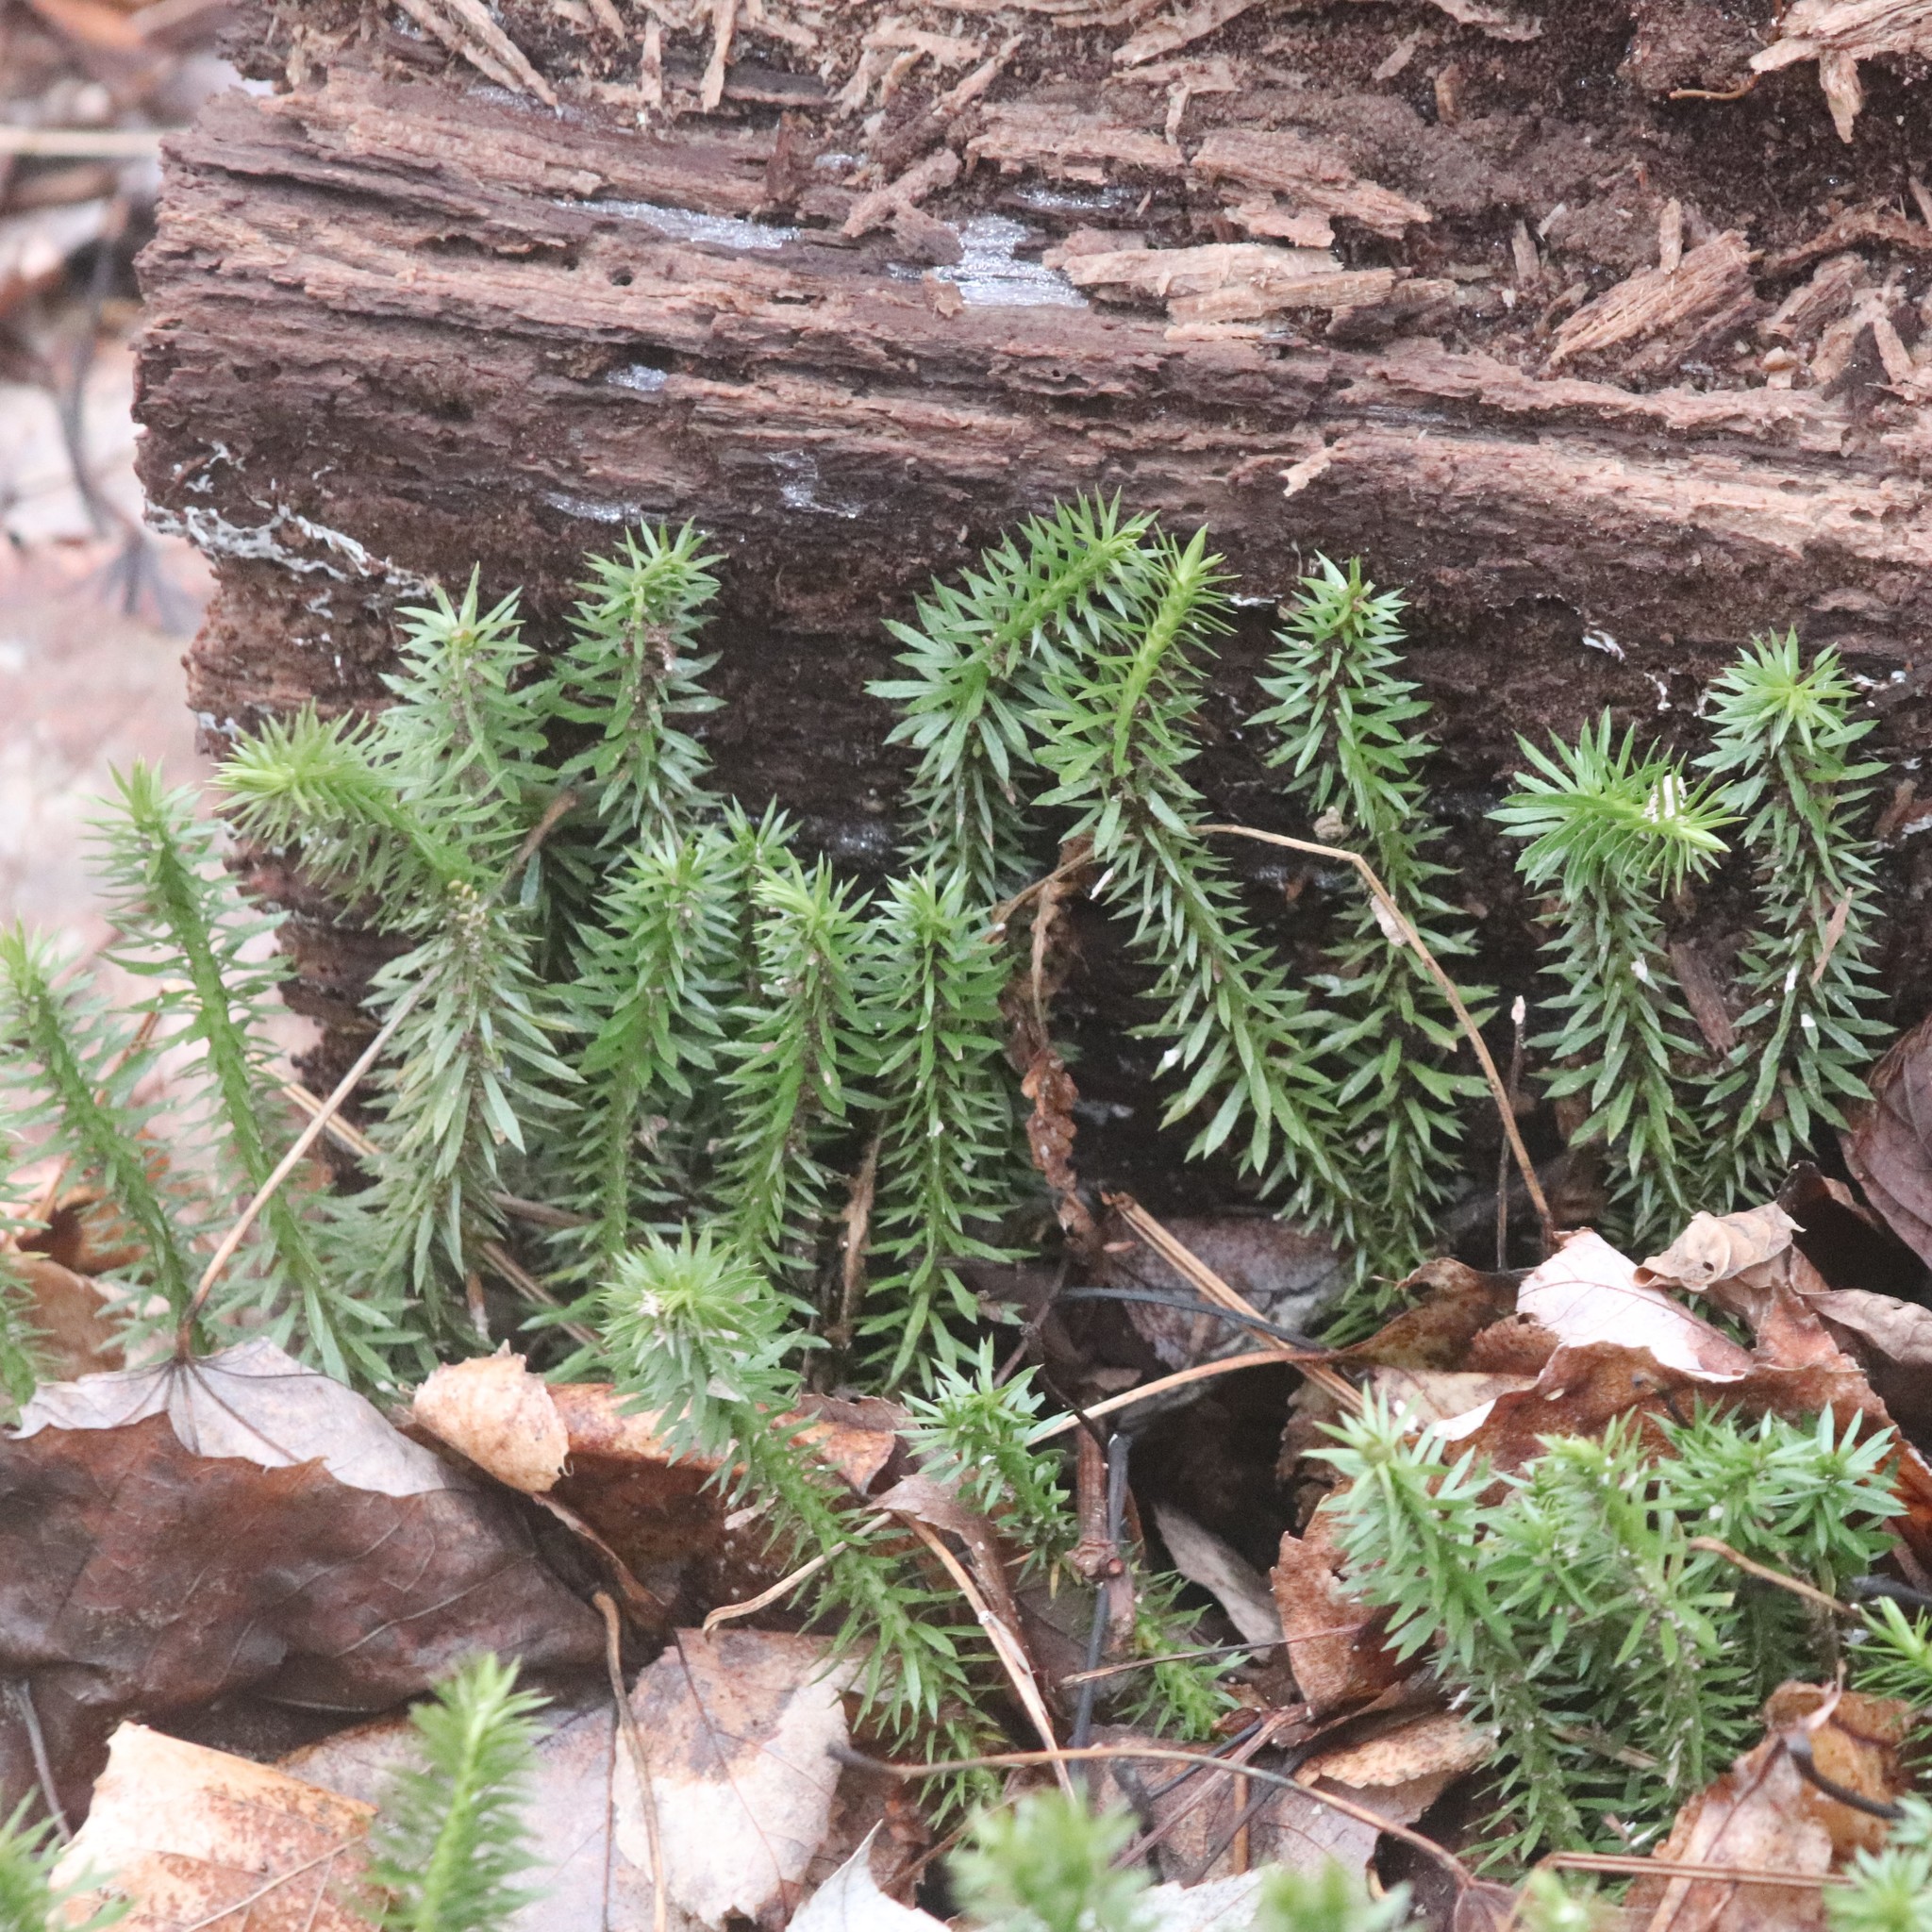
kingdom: Plantae
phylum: Tracheophyta
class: Lycopodiopsida
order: Lycopodiales
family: Lycopodiaceae
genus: Huperzia
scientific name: Huperzia lucidula
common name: Shining clubmoss
